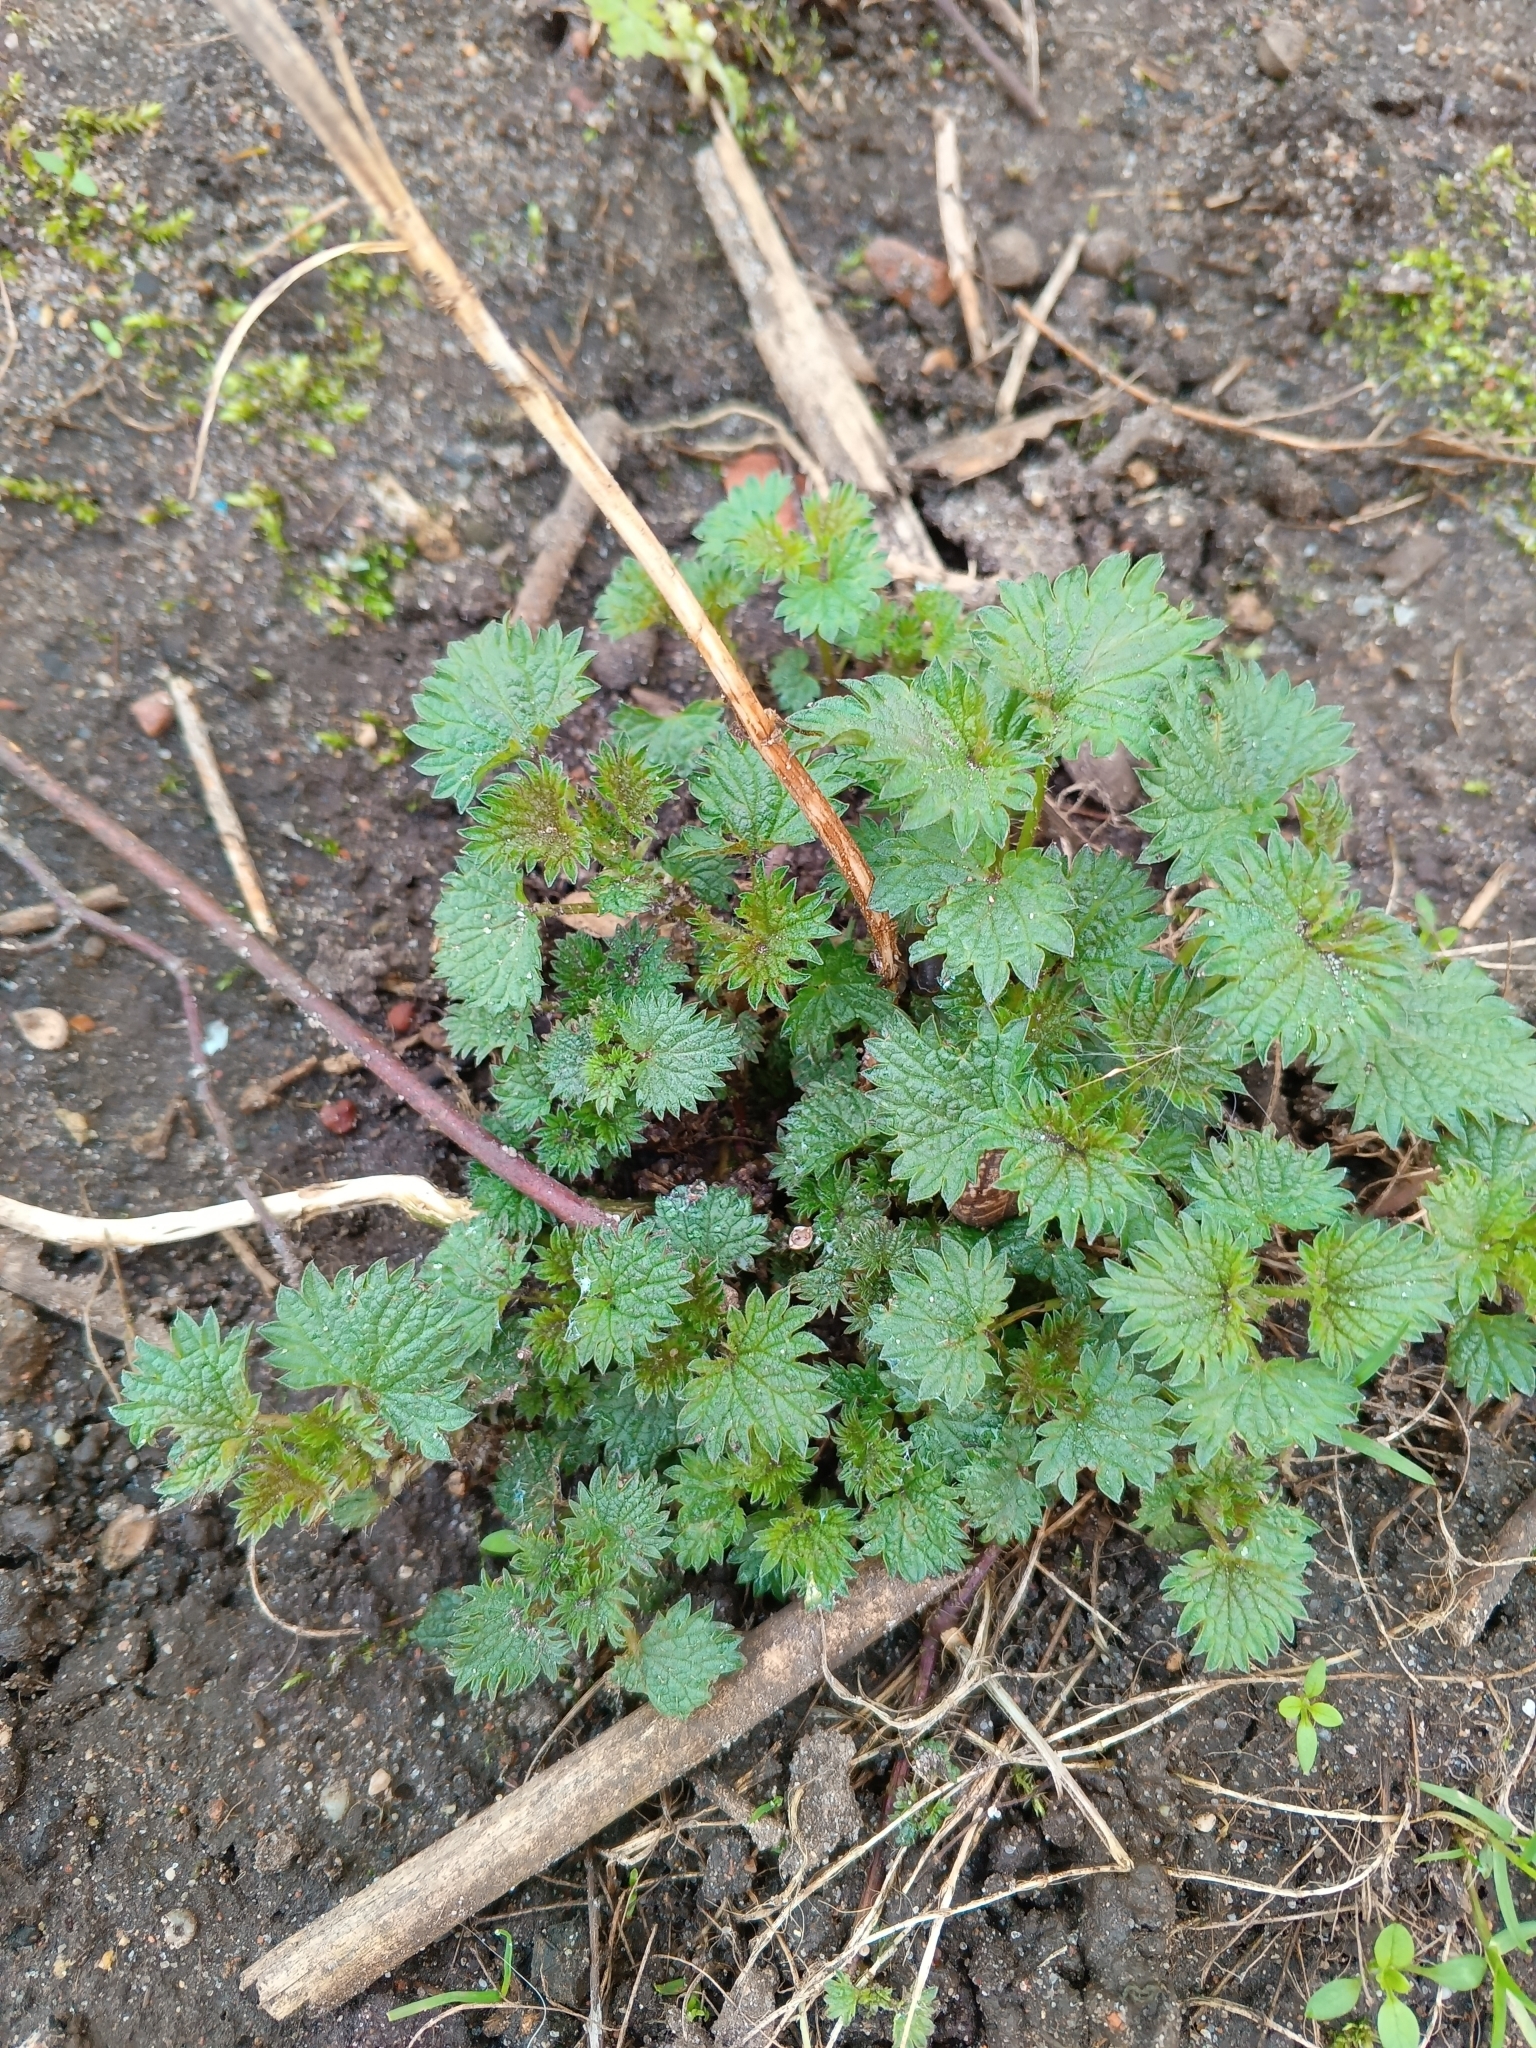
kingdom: Plantae
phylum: Tracheophyta
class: Magnoliopsida
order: Rosales
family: Urticaceae
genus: Urtica
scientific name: Urtica dioica
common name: Common nettle
